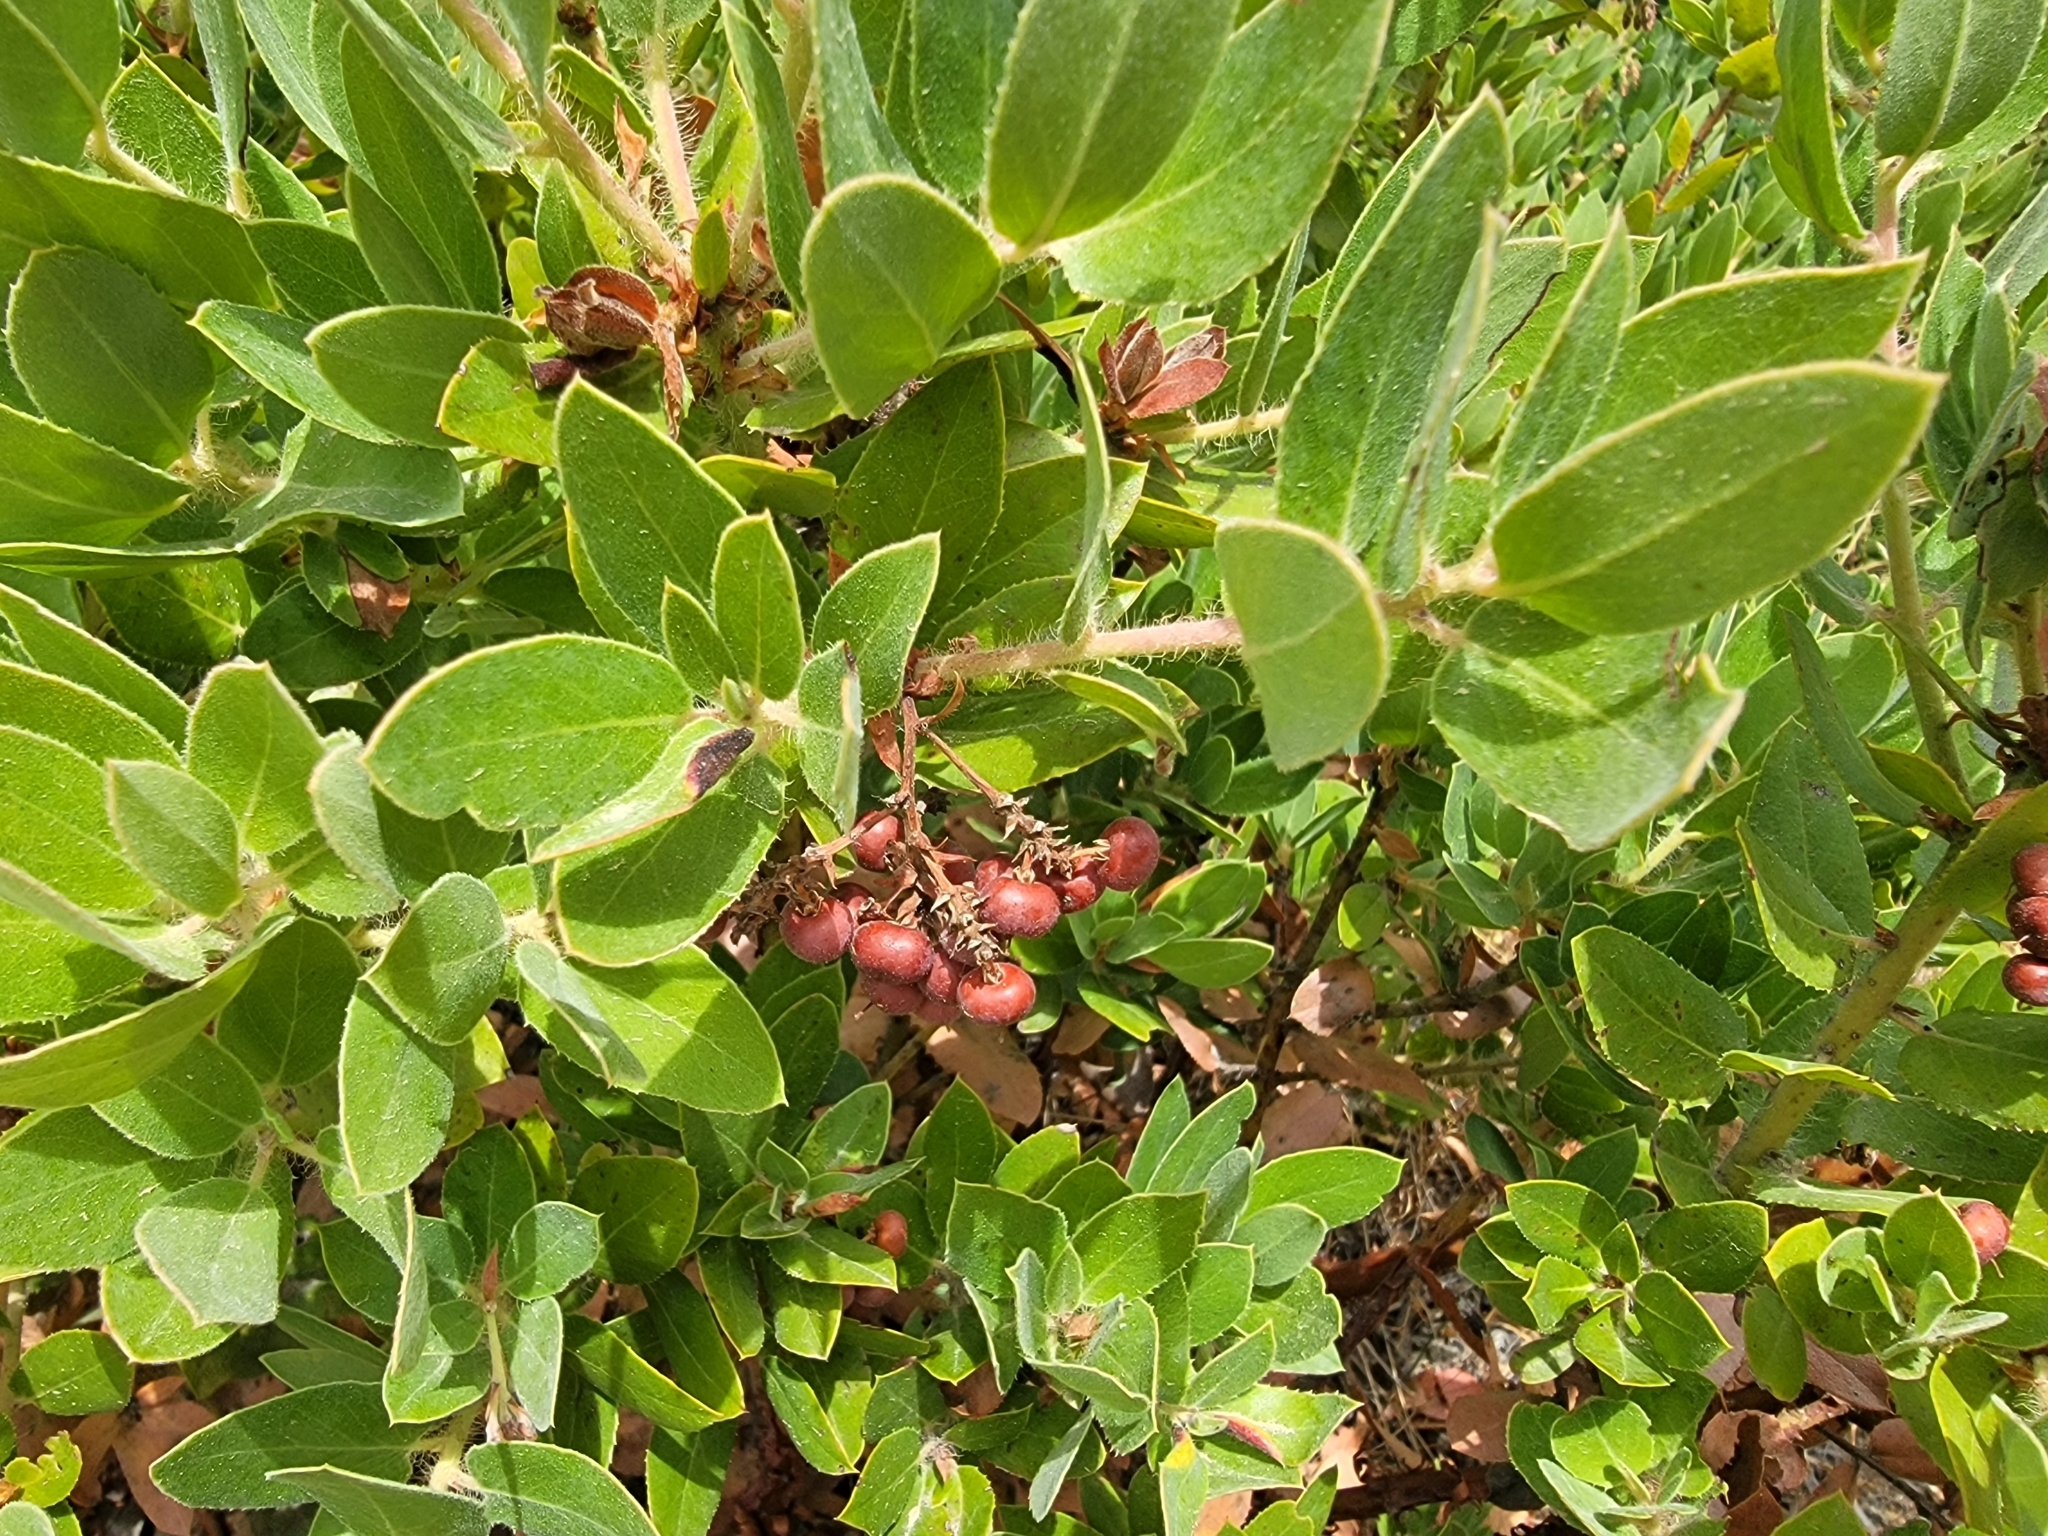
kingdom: Plantae
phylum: Tracheophyta
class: Magnoliopsida
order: Ericales
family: Ericaceae
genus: Arctostaphylos
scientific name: Arctostaphylos crustacea
